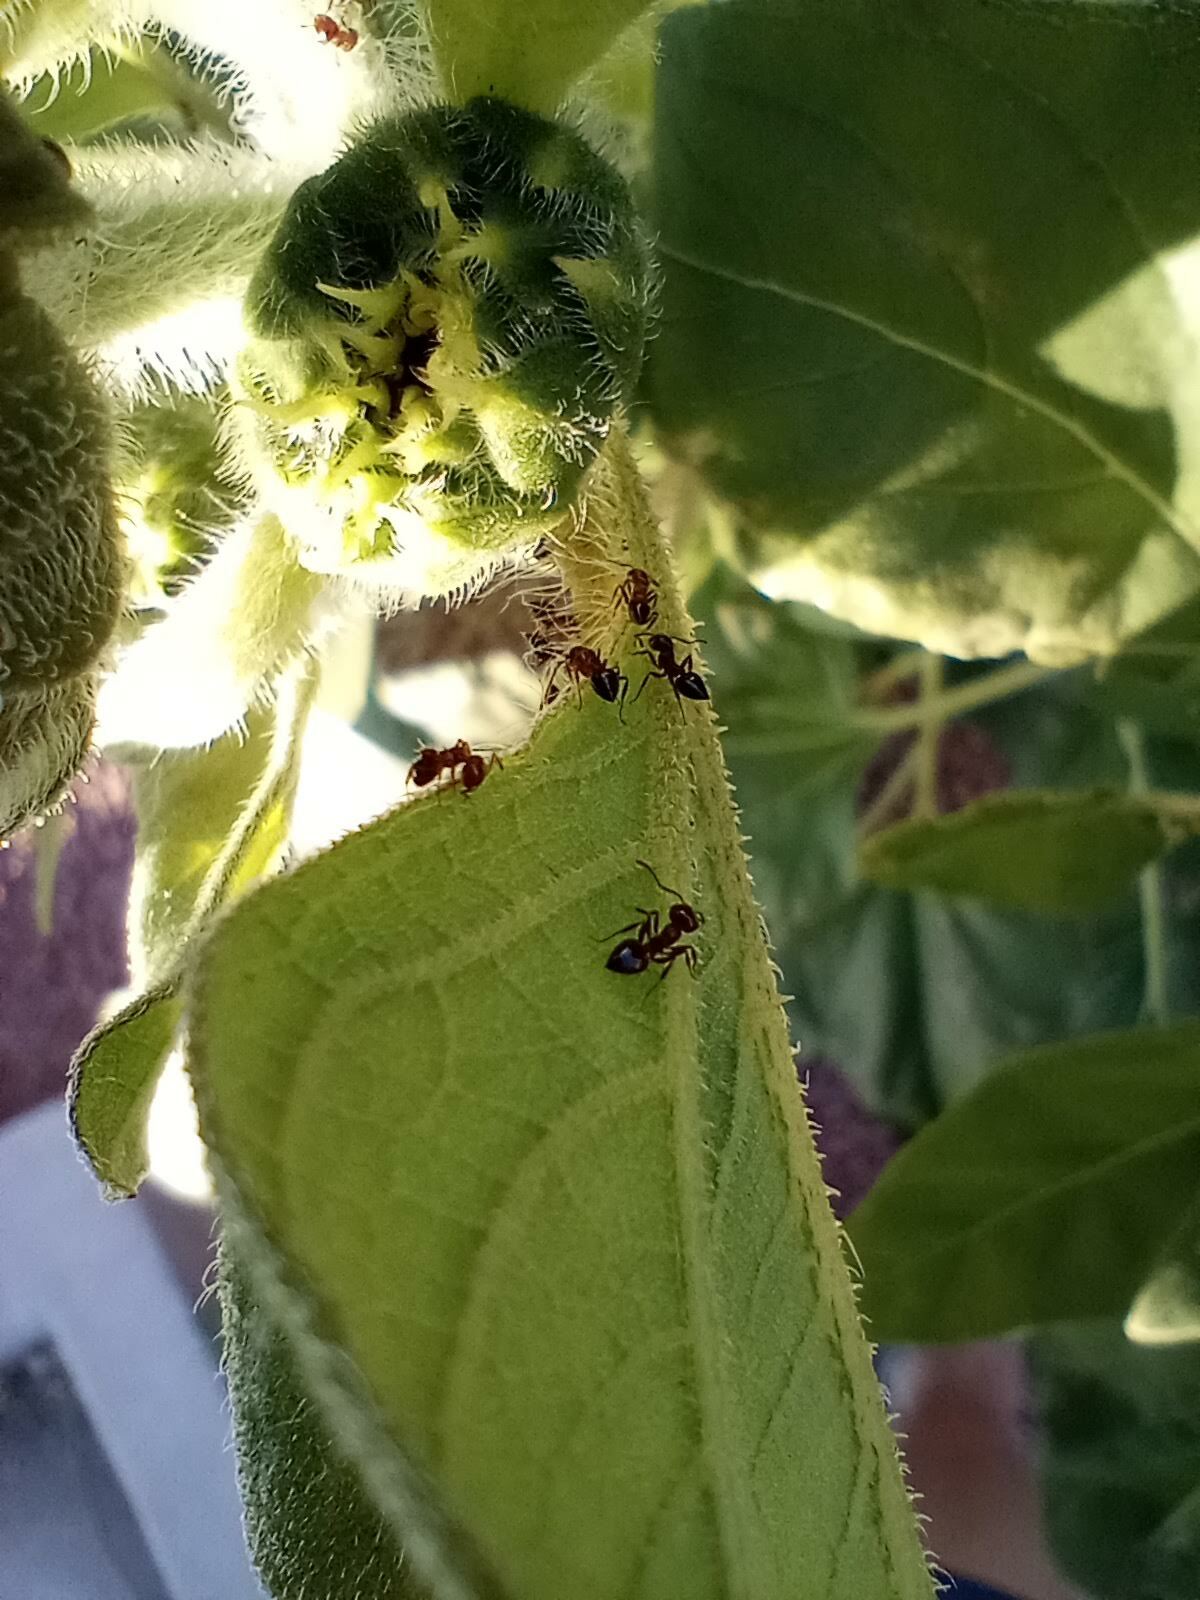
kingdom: Animalia
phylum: Arthropoda
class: Insecta
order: Hymenoptera
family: Formicidae
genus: Crematogaster
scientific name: Crematogaster
